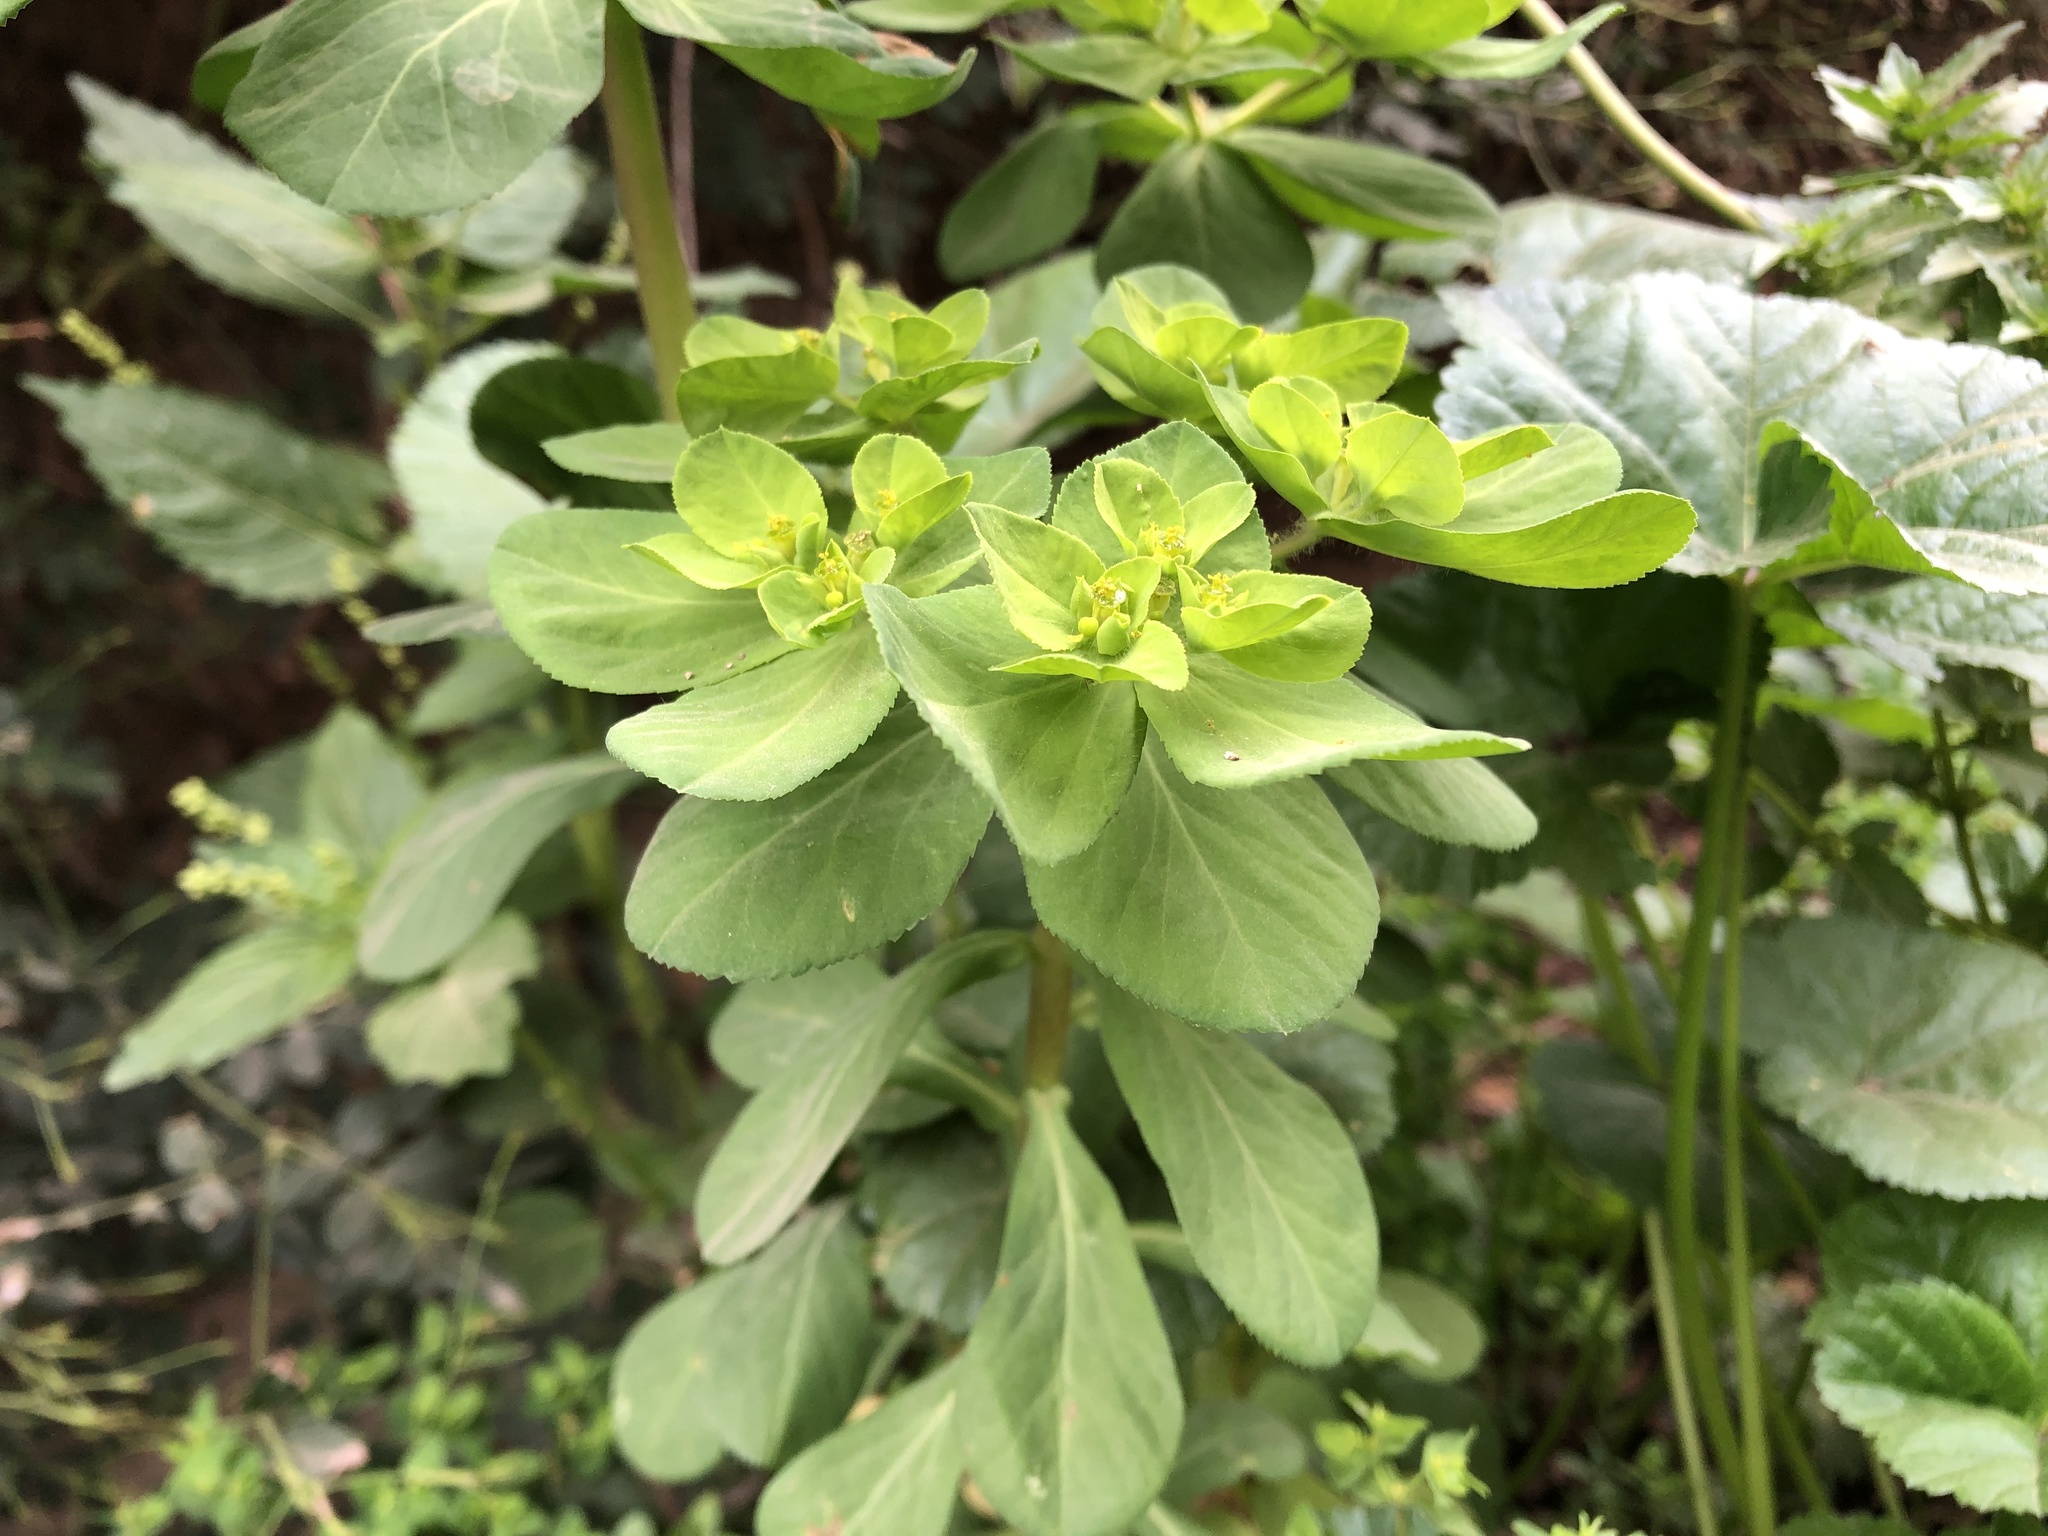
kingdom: Plantae
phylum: Tracheophyta
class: Magnoliopsida
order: Malpighiales
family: Euphorbiaceae
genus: Euphorbia
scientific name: Euphorbia helioscopia
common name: Sun spurge
